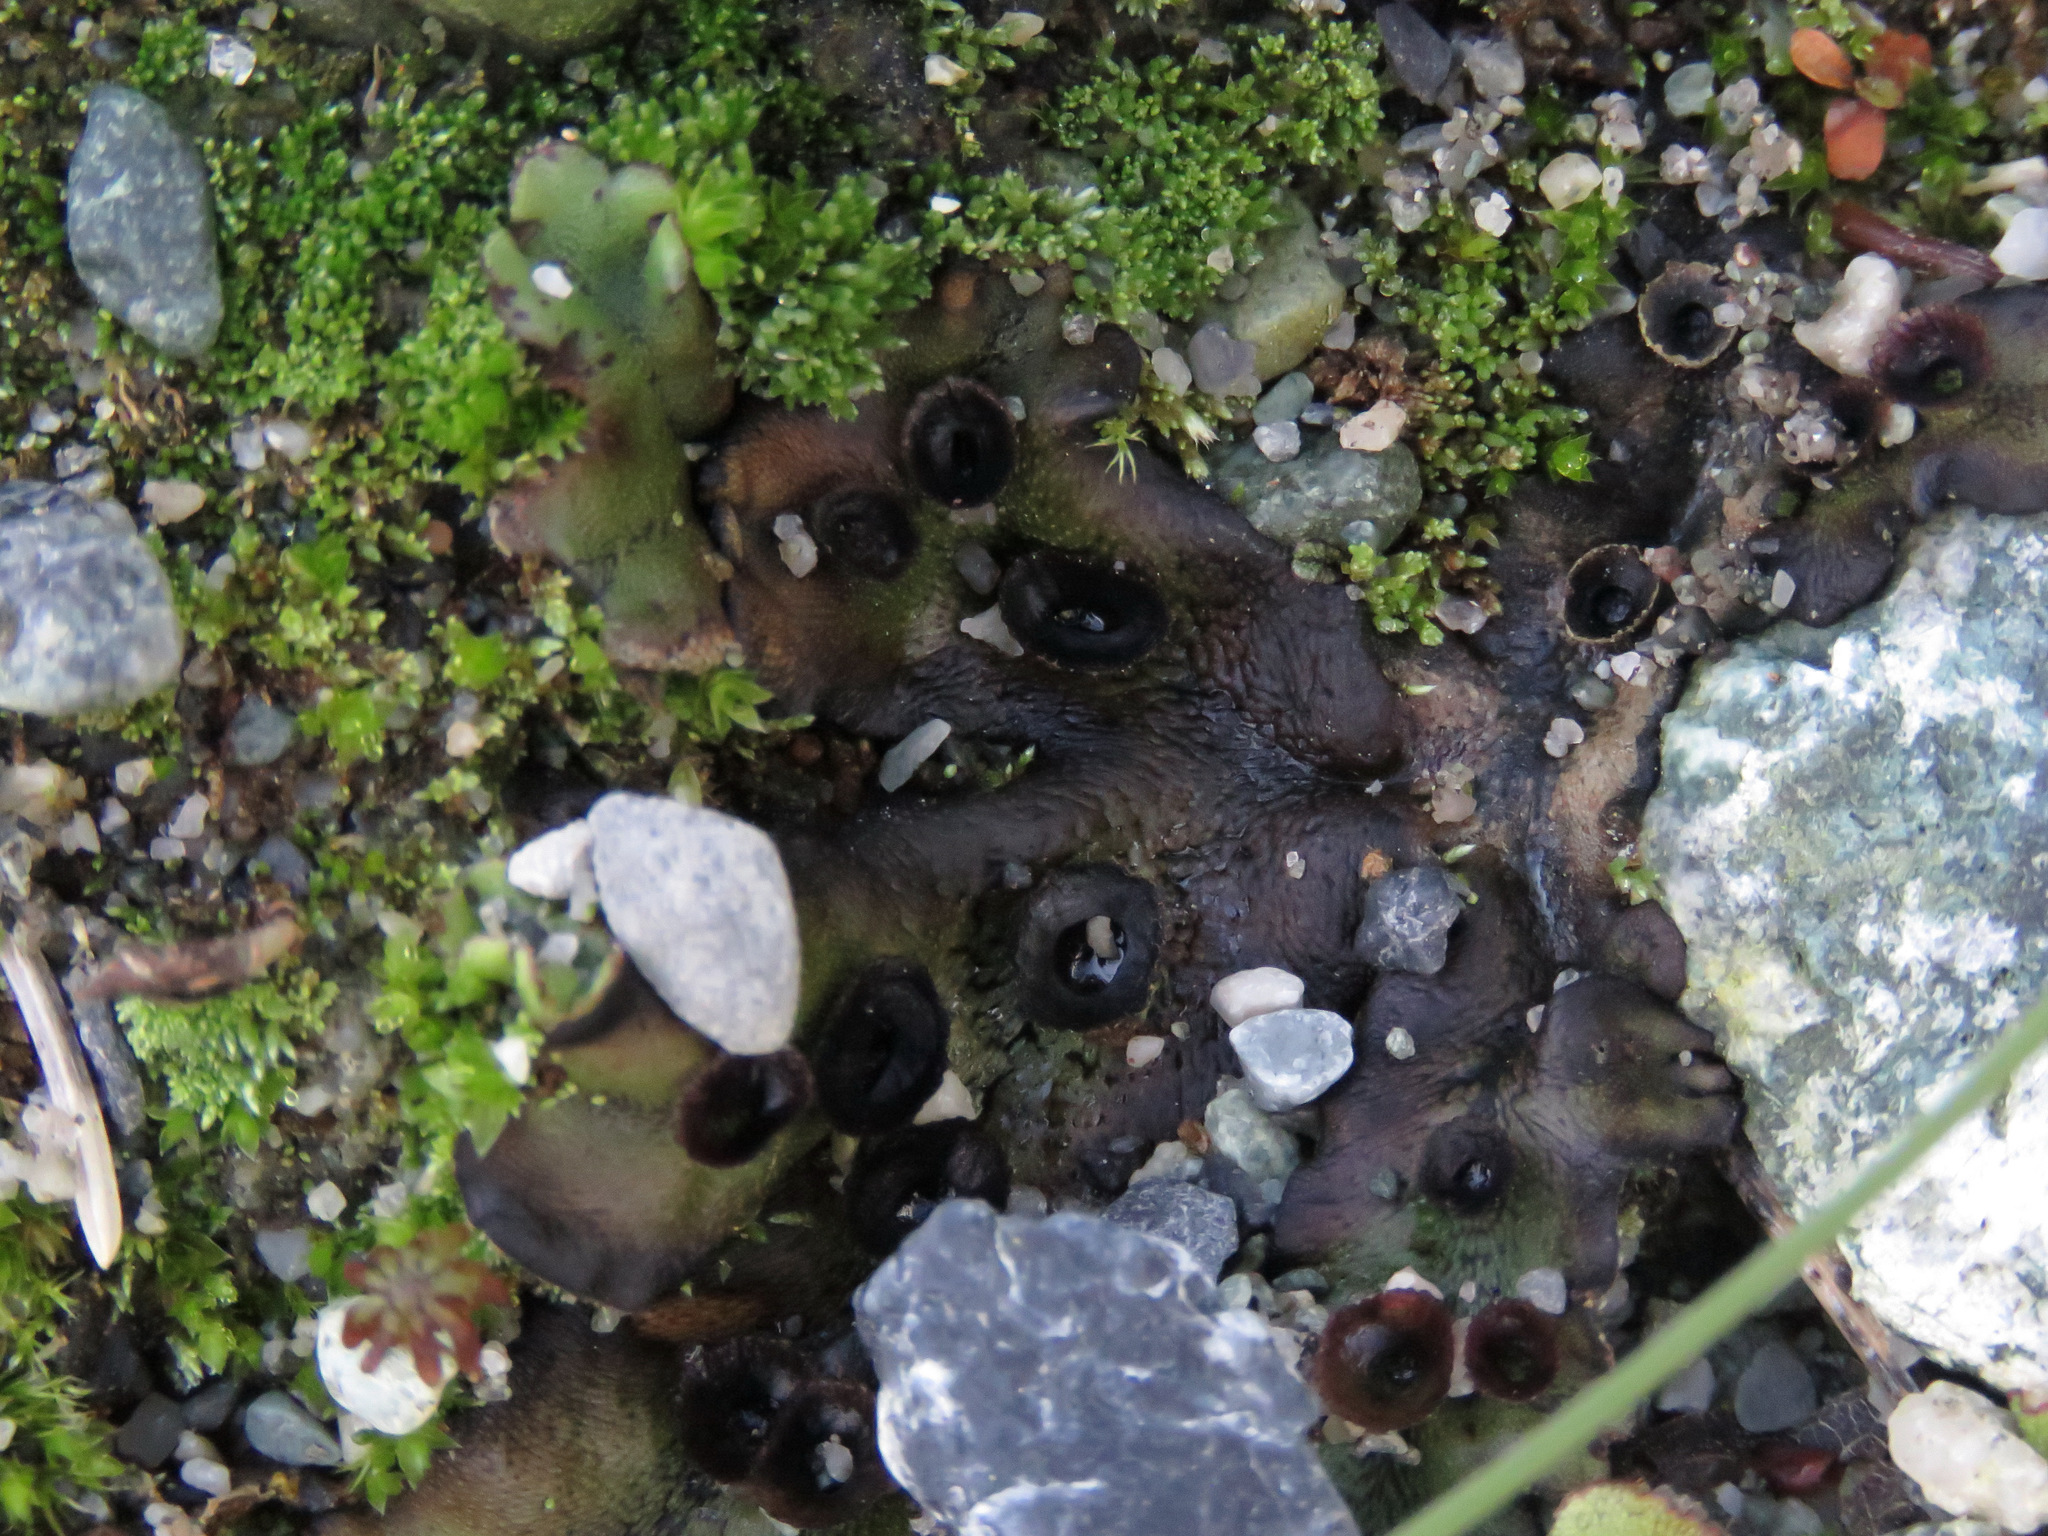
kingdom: Plantae
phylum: Marchantiophyta
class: Marchantiopsida
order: Marchantiales
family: Marchantiaceae
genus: Marchantia
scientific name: Marchantia polymorpha
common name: Common liverwort
